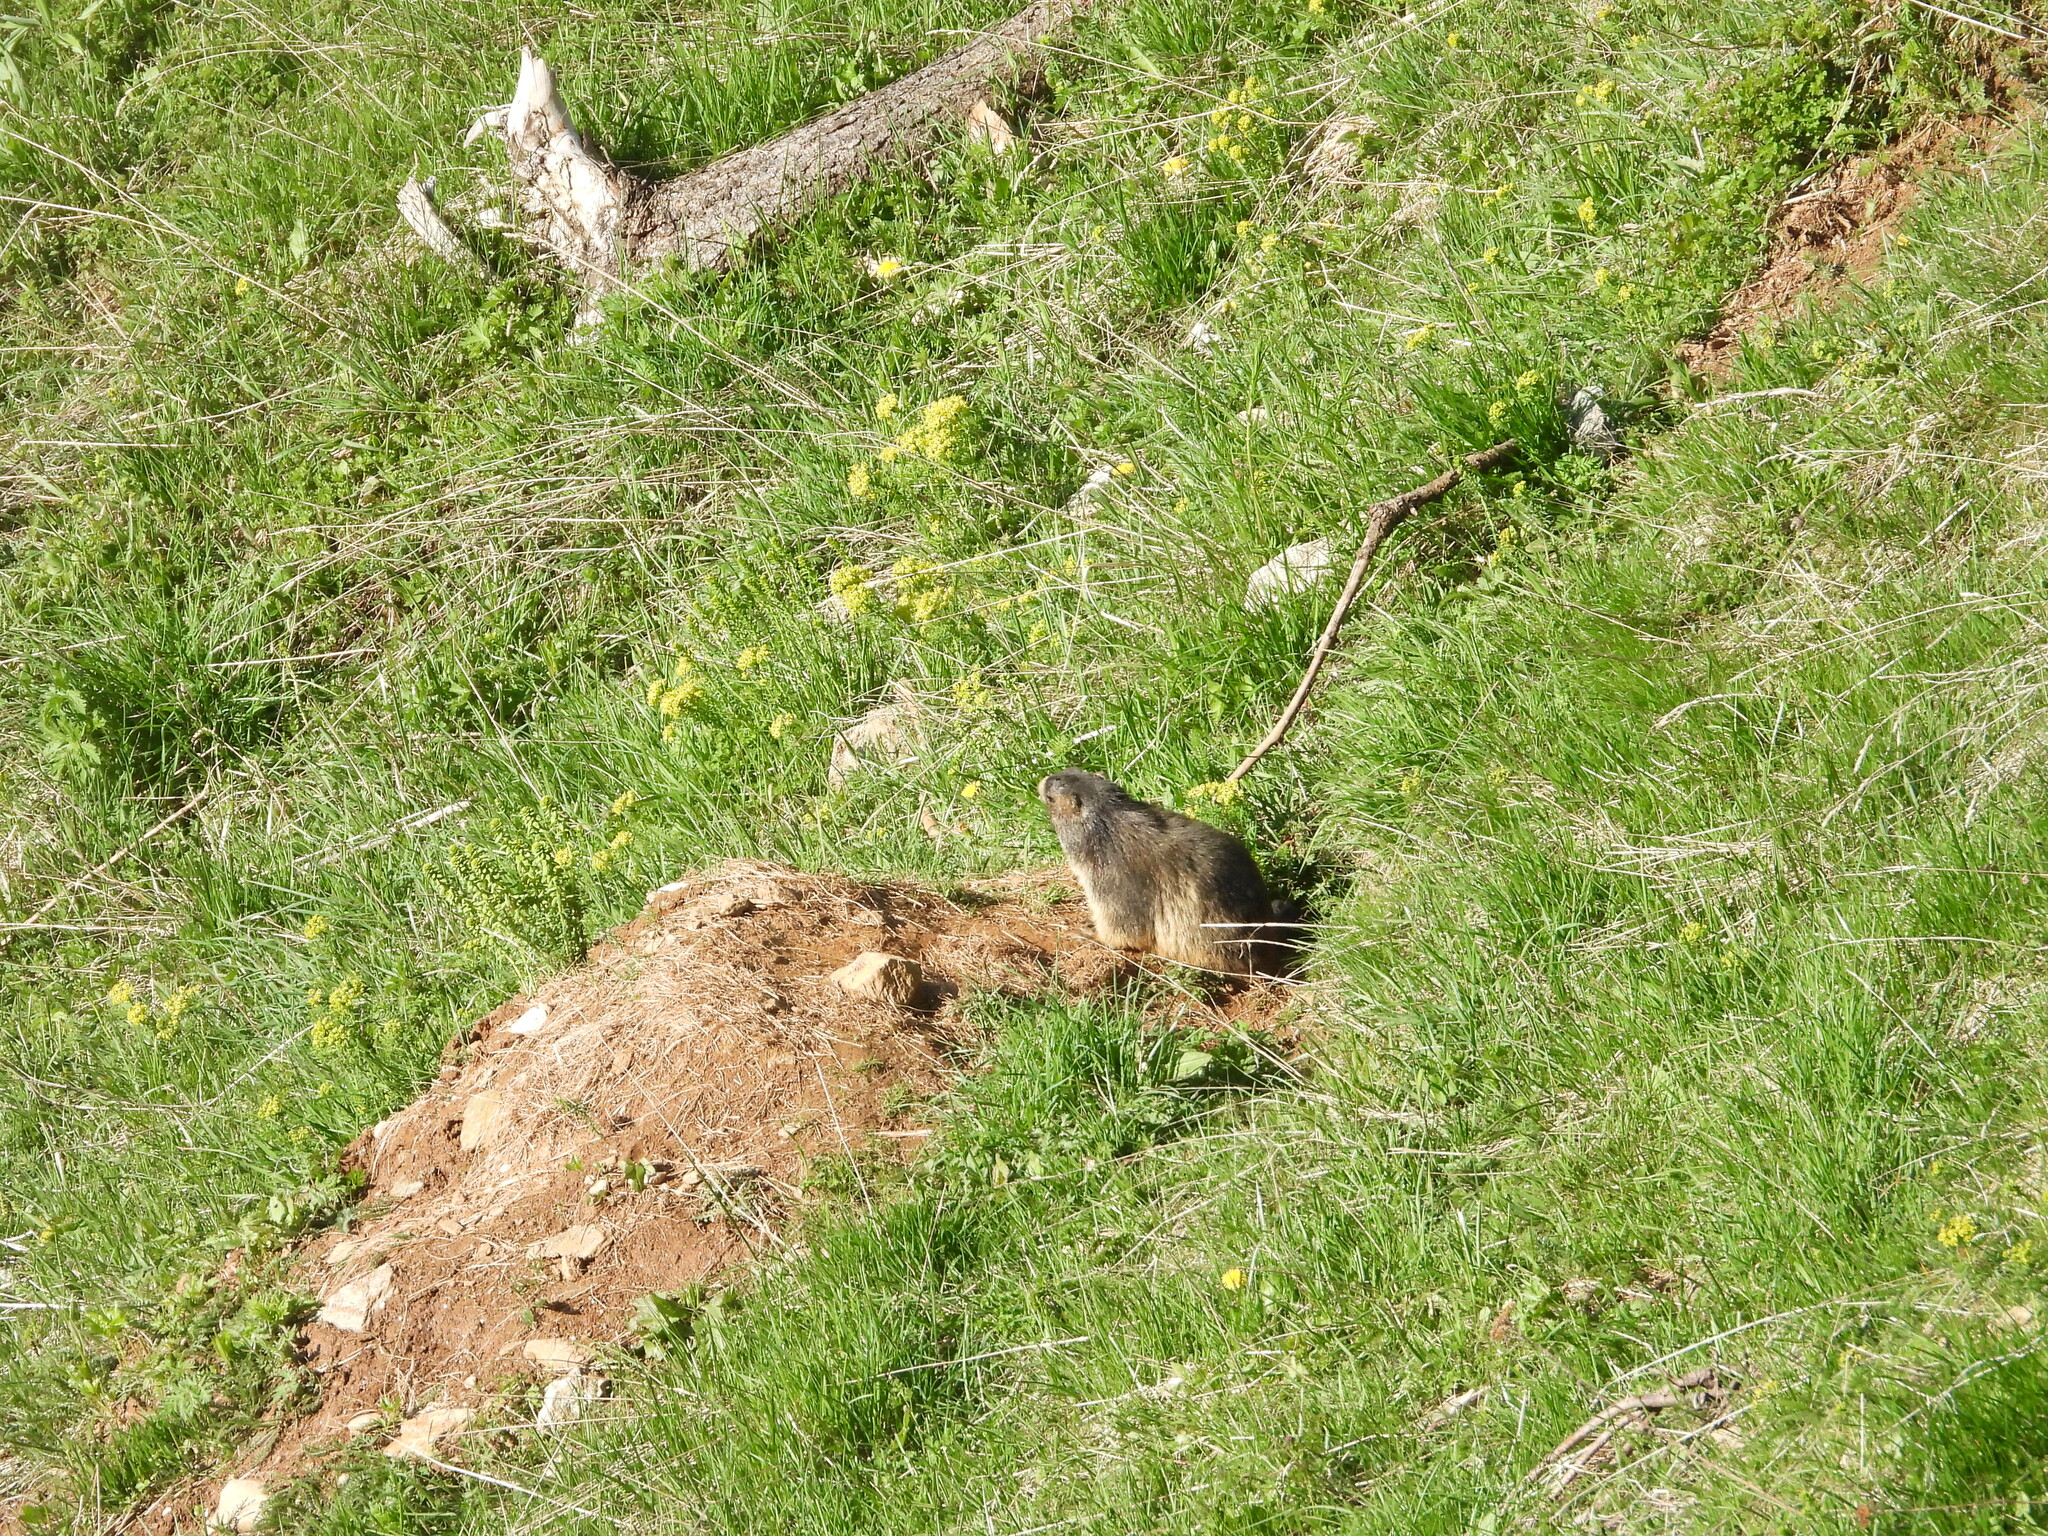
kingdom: Animalia
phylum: Chordata
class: Mammalia
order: Rodentia
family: Sciuridae
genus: Marmota
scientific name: Marmota marmota
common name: Alpine marmot
